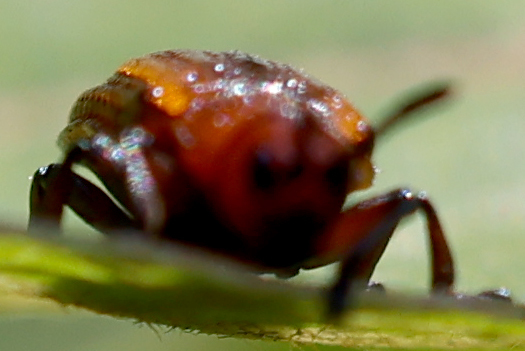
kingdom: Animalia
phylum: Arthropoda
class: Insecta
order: Coleoptera
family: Chrysomelidae
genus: Microrhopala
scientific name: Microrhopala vittata
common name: Goldenrod leaf miner beetle
